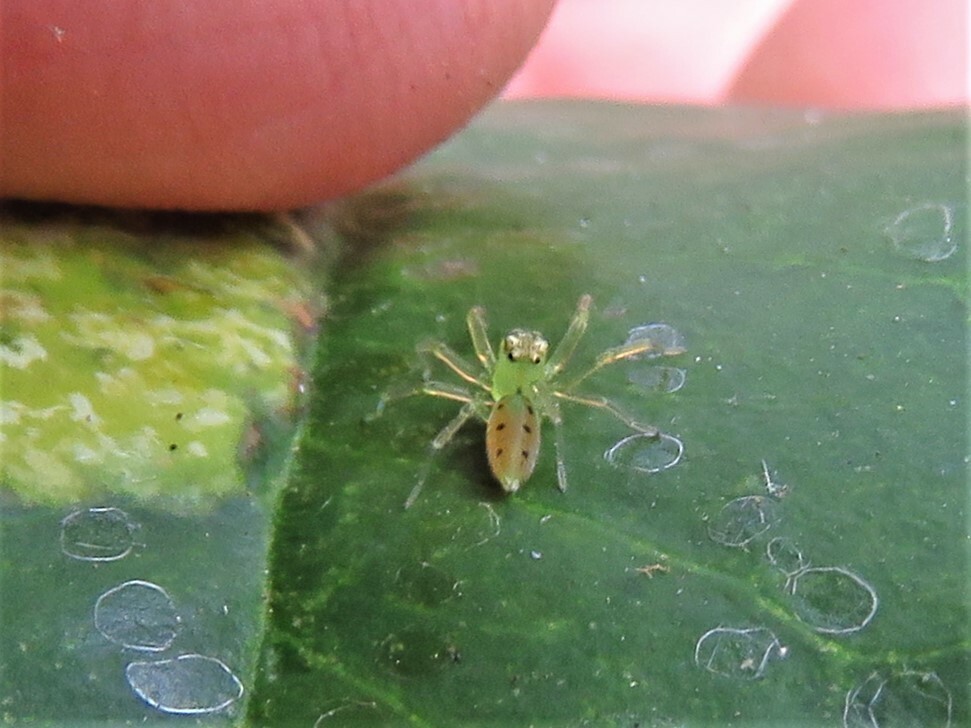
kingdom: Animalia
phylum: Arthropoda
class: Arachnida
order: Araneae
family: Salticidae
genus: Lyssomanes
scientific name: Lyssomanes viridis
